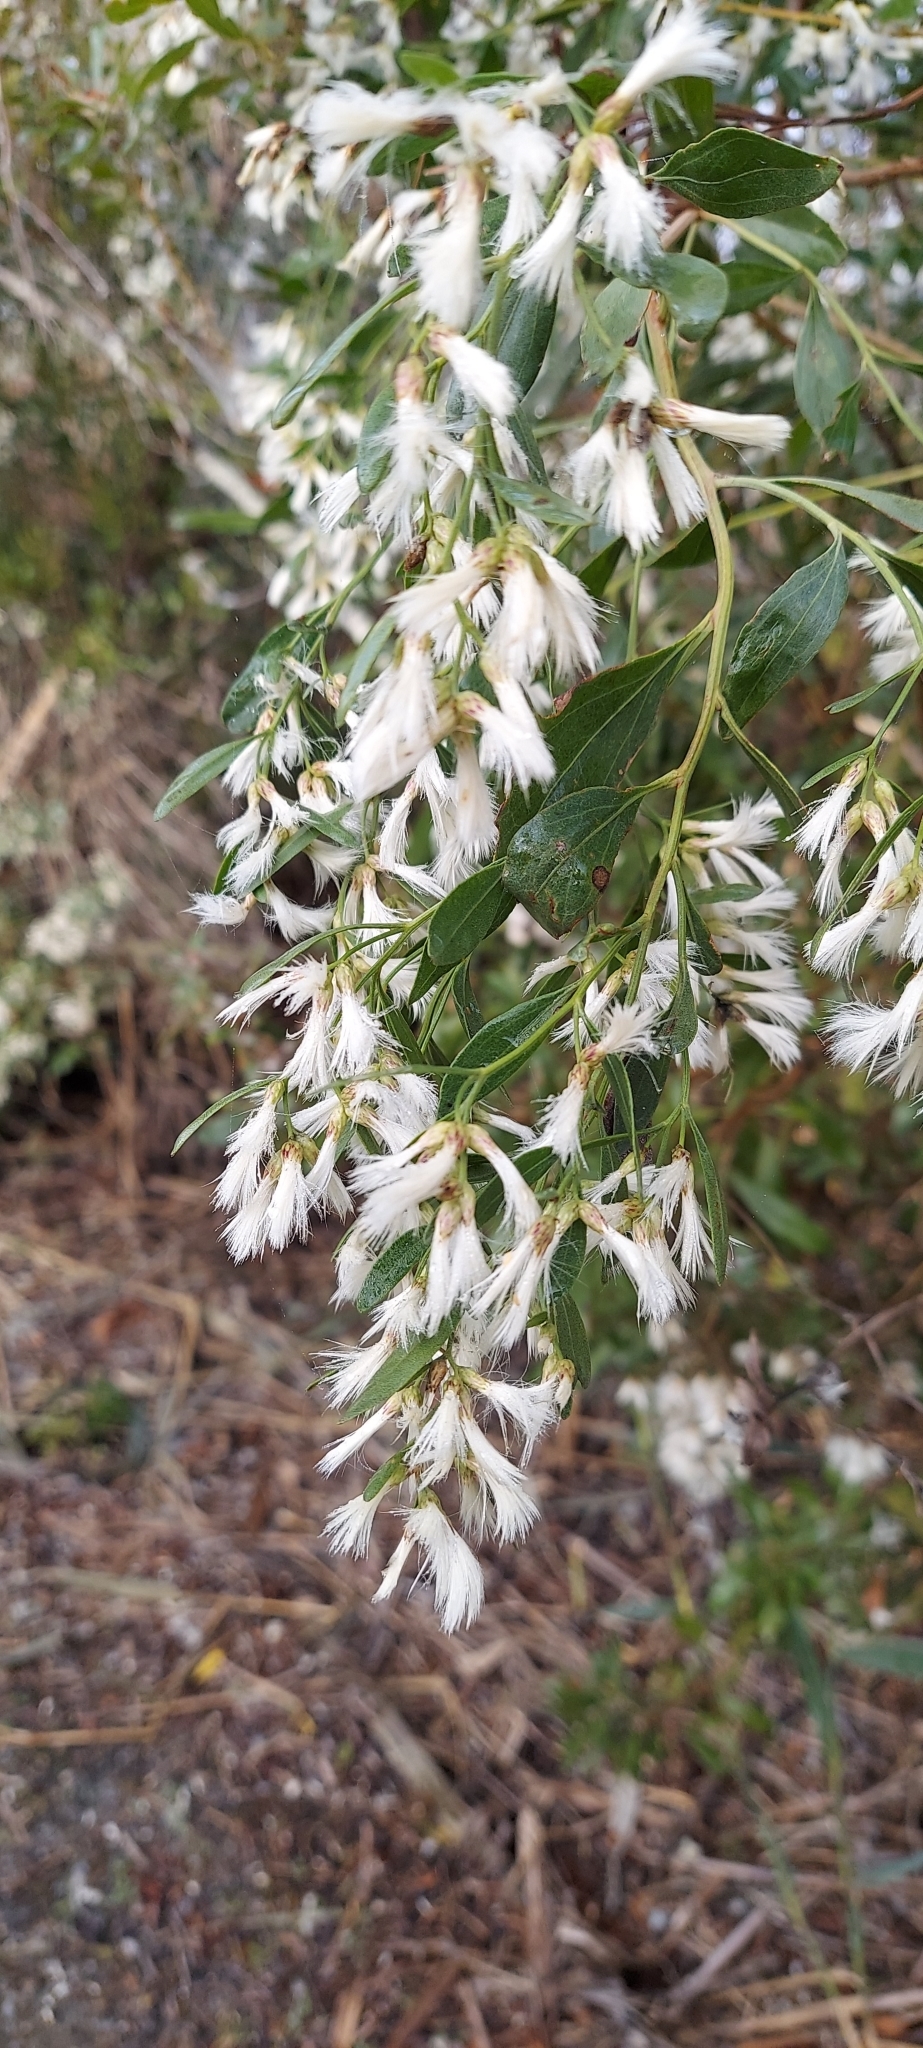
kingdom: Plantae
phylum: Tracheophyta
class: Magnoliopsida
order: Asterales
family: Asteraceae
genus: Baccharis
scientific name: Baccharis halimifolia
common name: Eastern baccharis
